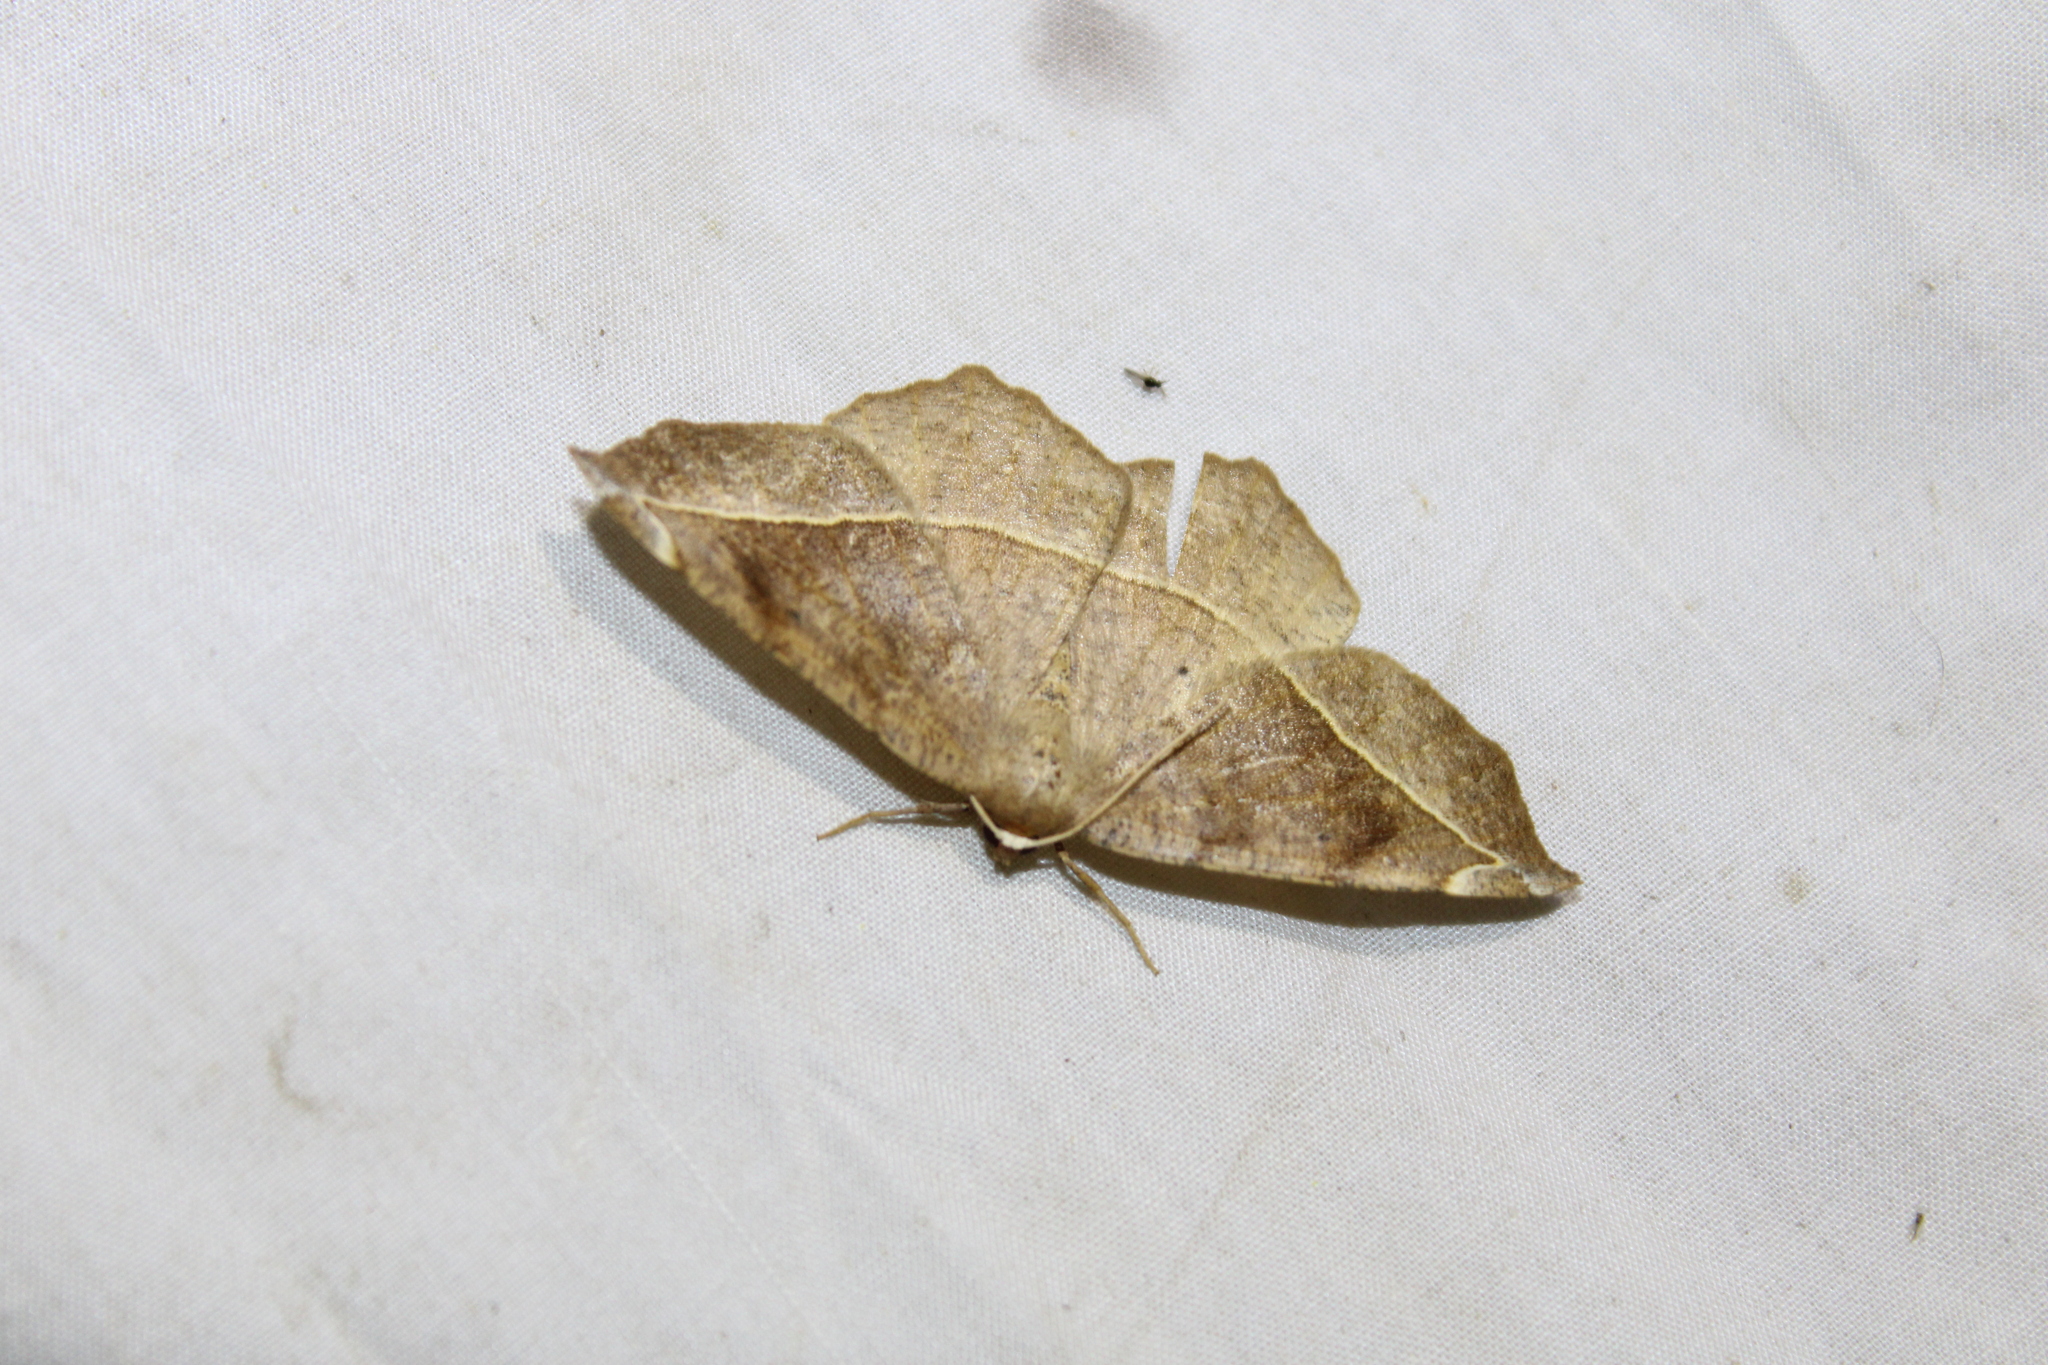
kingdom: Animalia
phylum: Arthropoda
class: Insecta
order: Lepidoptera
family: Geometridae
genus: Eutrapela
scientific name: Eutrapela clemataria
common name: Curved-toothed geometer
